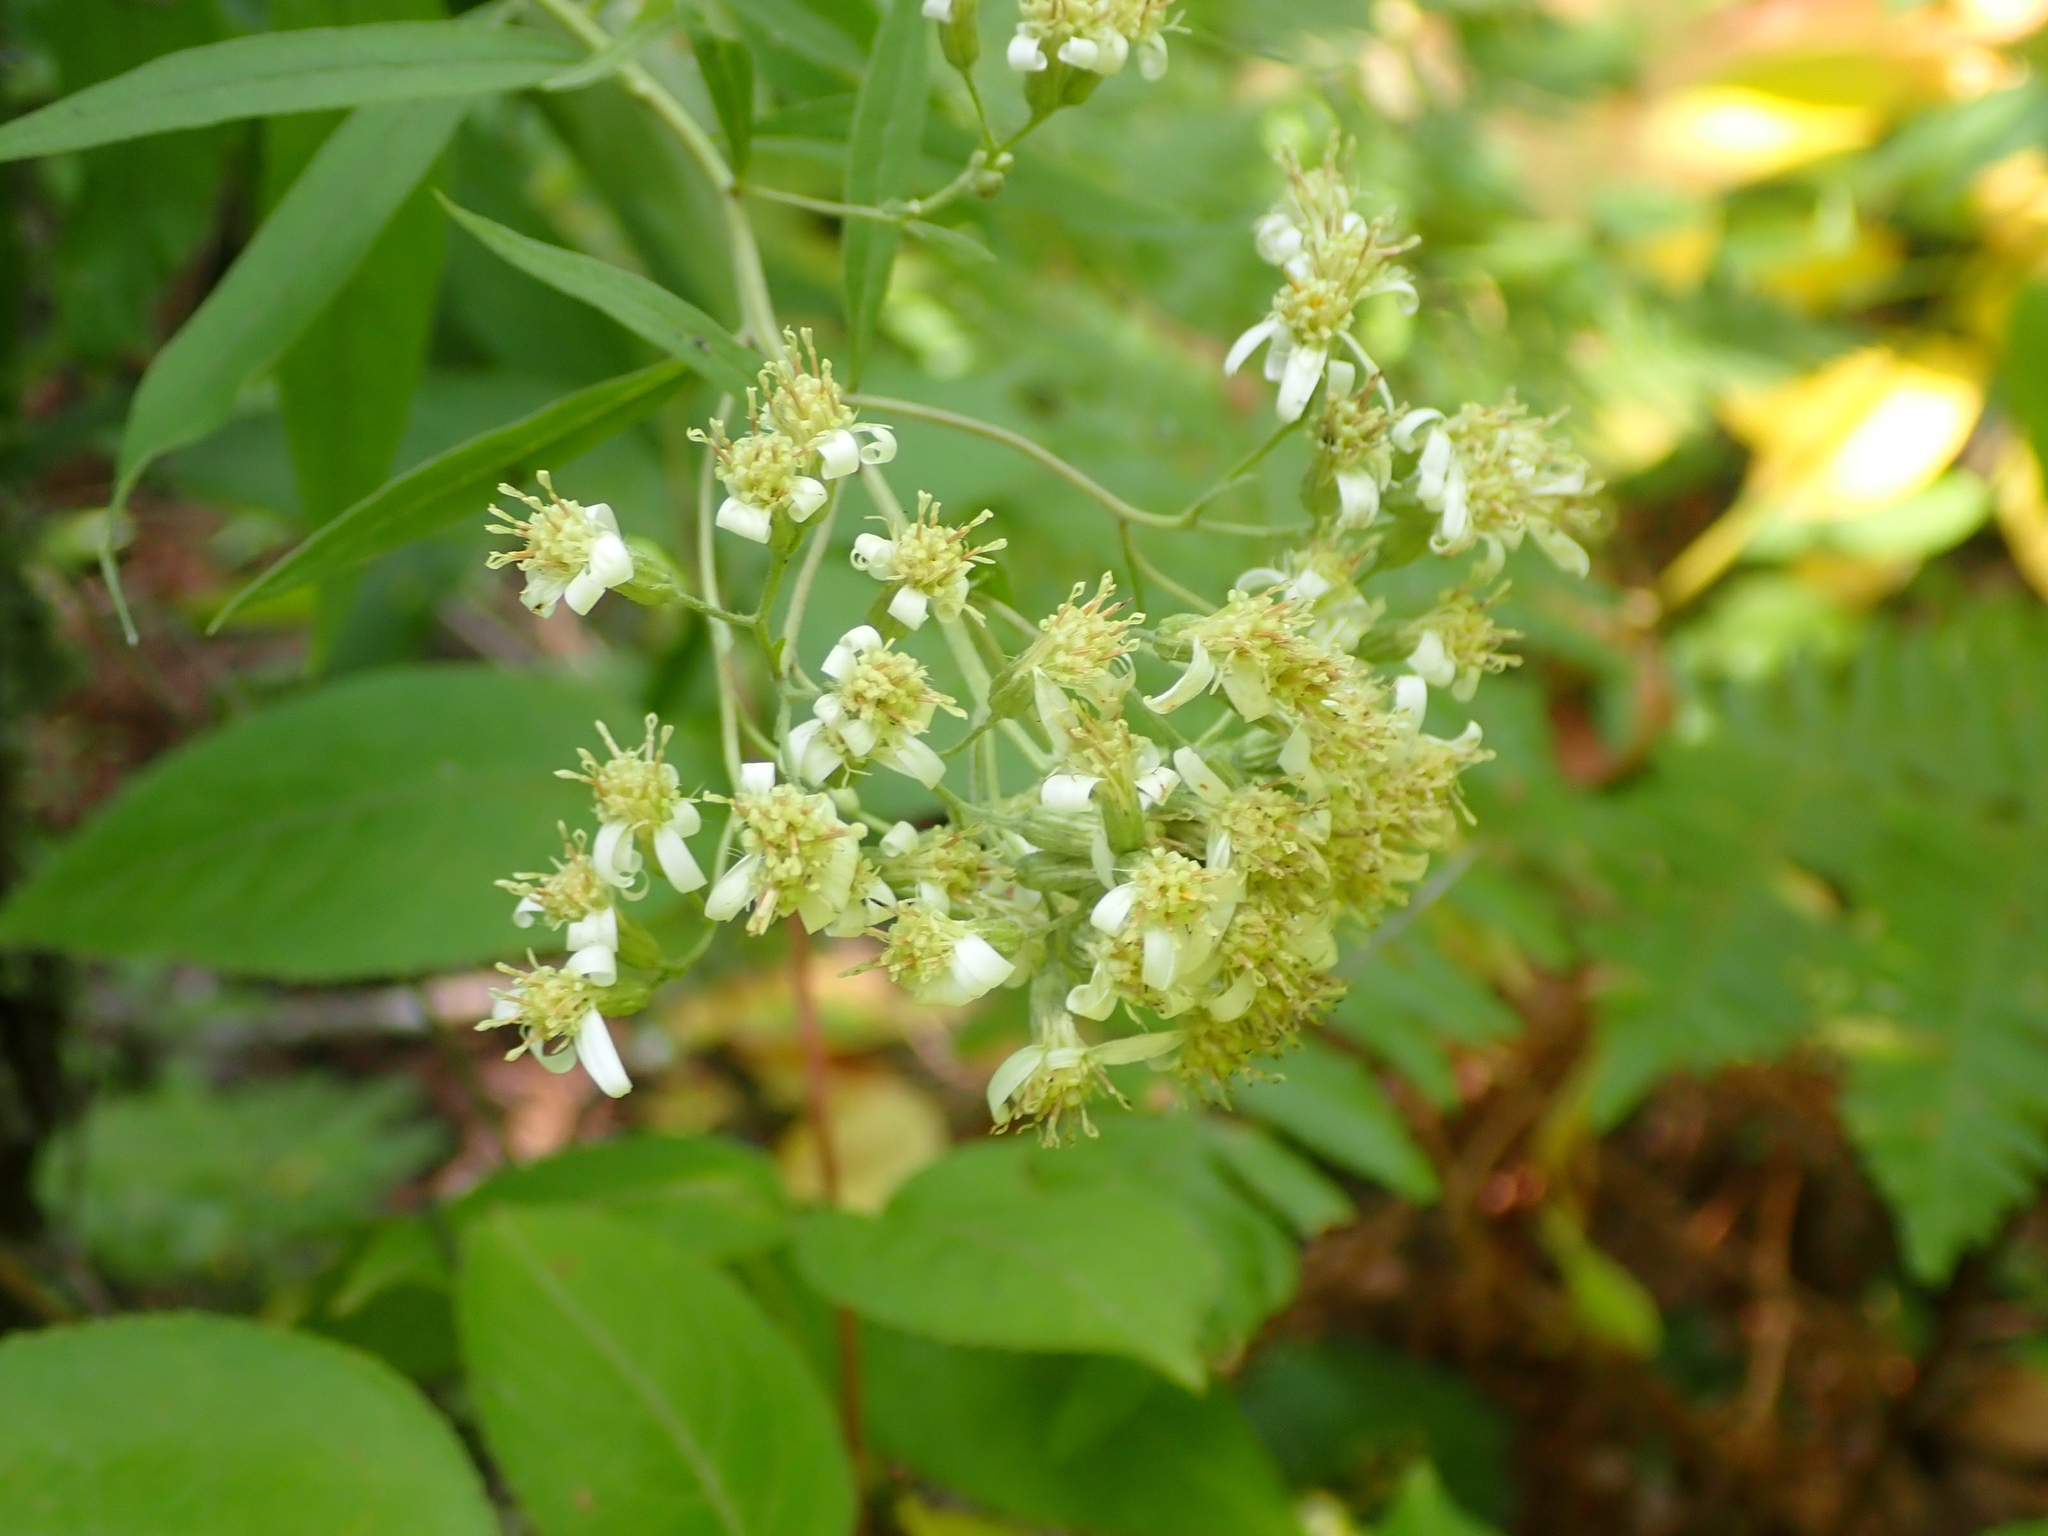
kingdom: Plantae
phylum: Tracheophyta
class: Magnoliopsida
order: Asterales
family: Asteraceae
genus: Doellingeria
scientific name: Doellingeria umbellata
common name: Flat-top white aster
